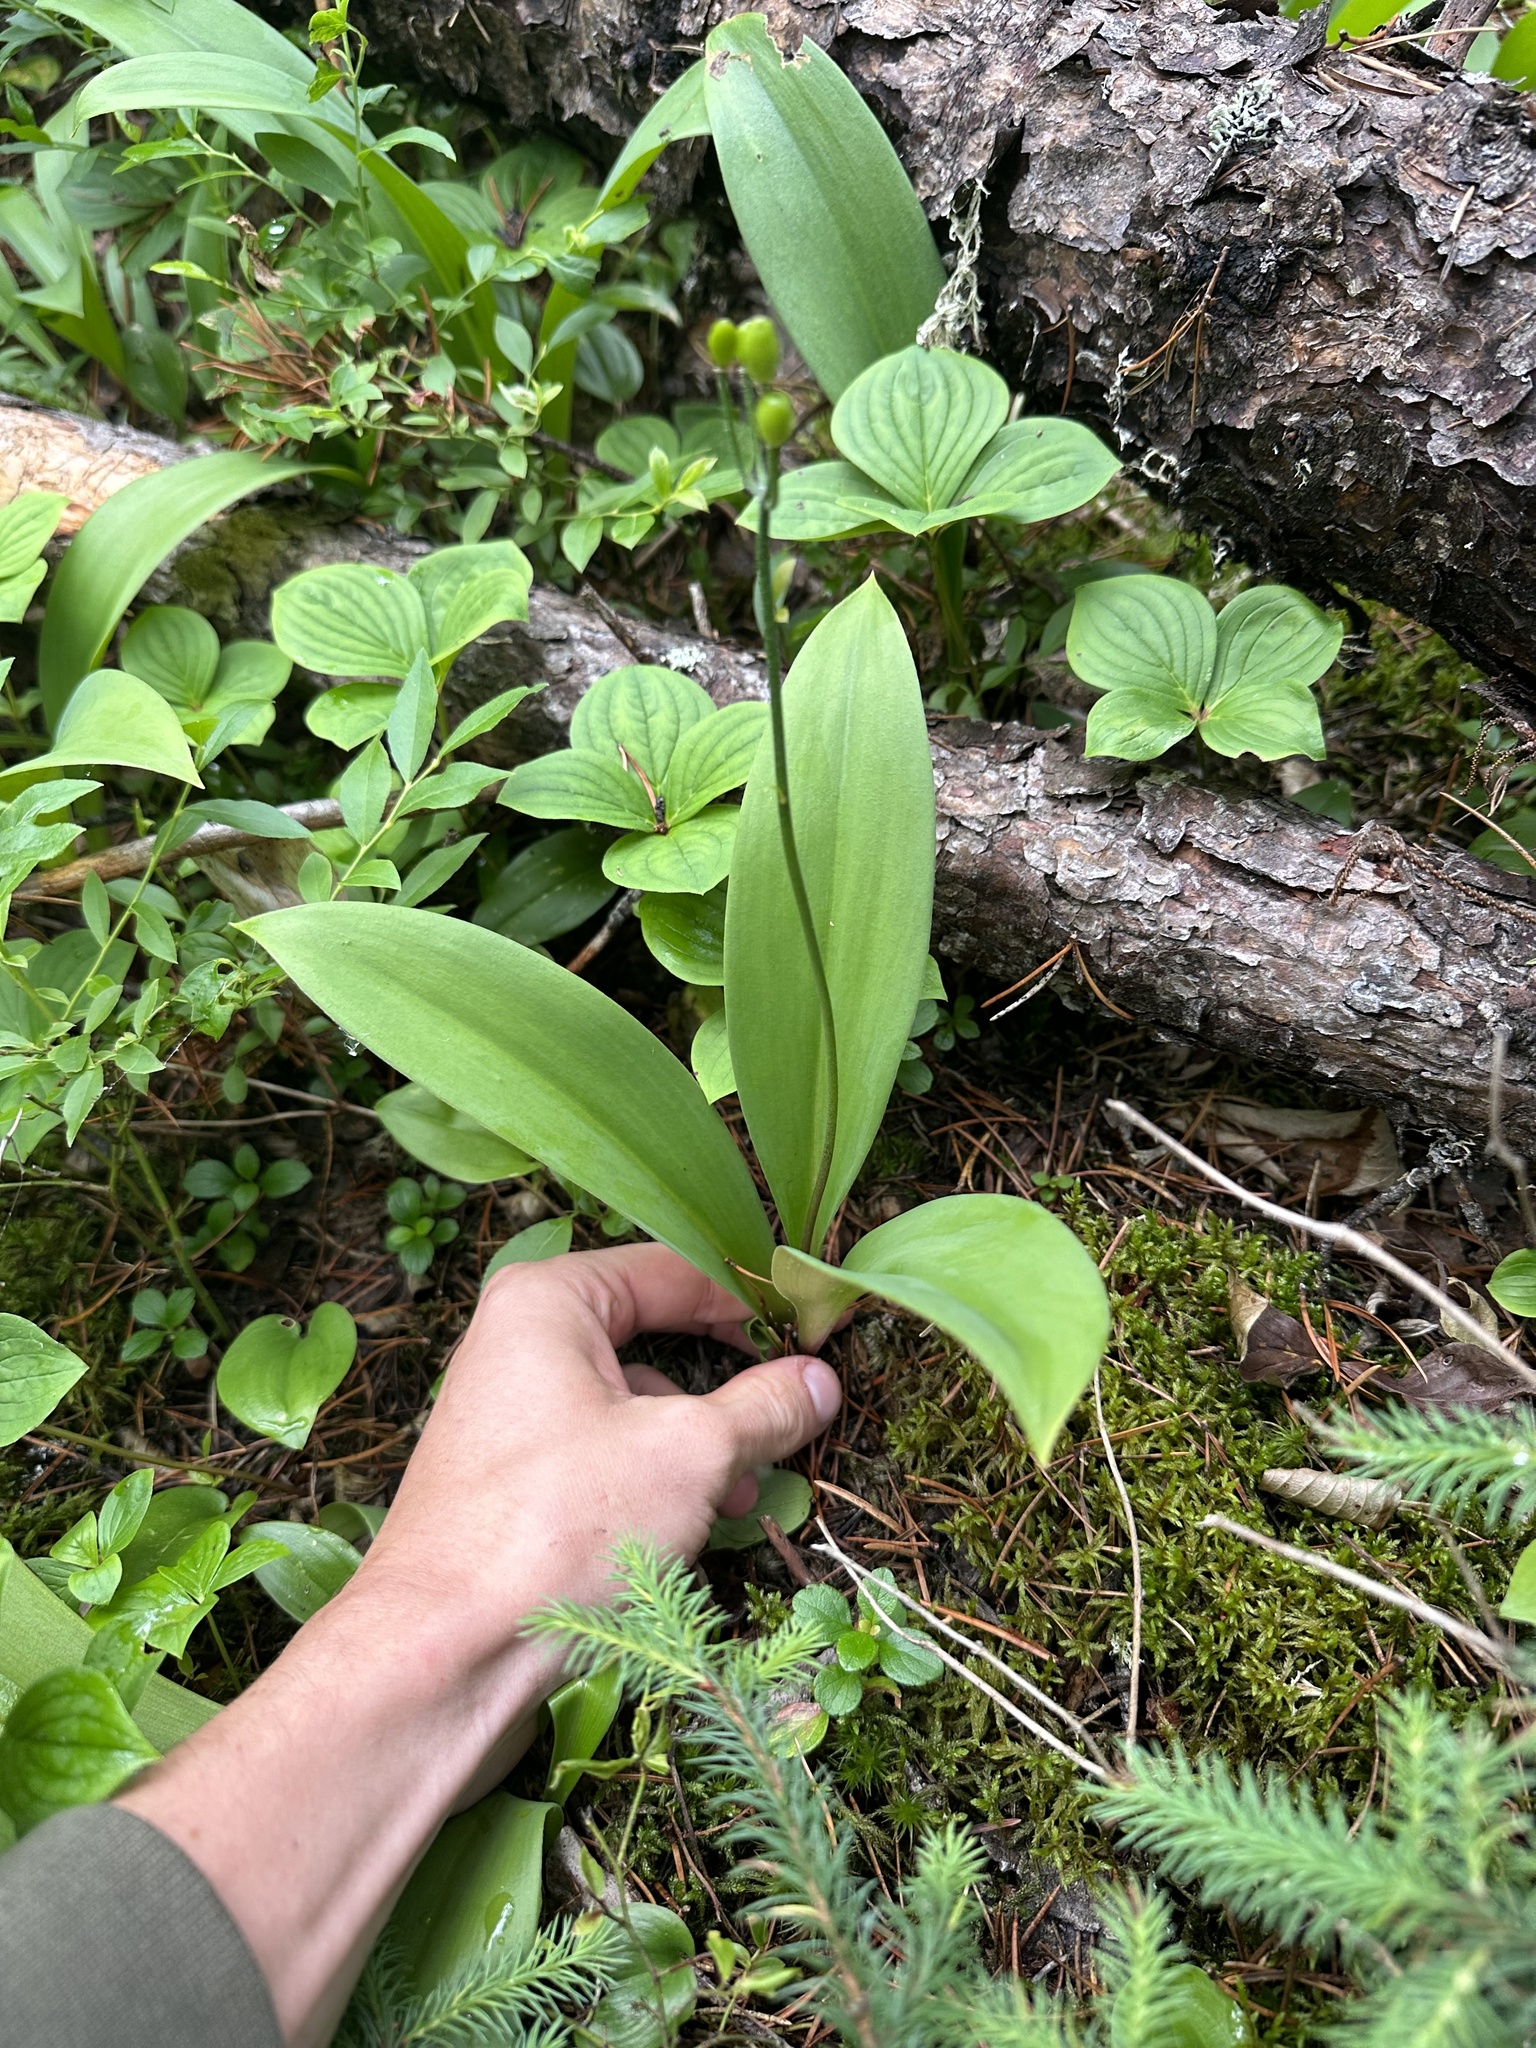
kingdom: Plantae
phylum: Tracheophyta
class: Liliopsida
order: Liliales
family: Liliaceae
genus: Clintonia
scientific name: Clintonia borealis
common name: Yellow clintonia
